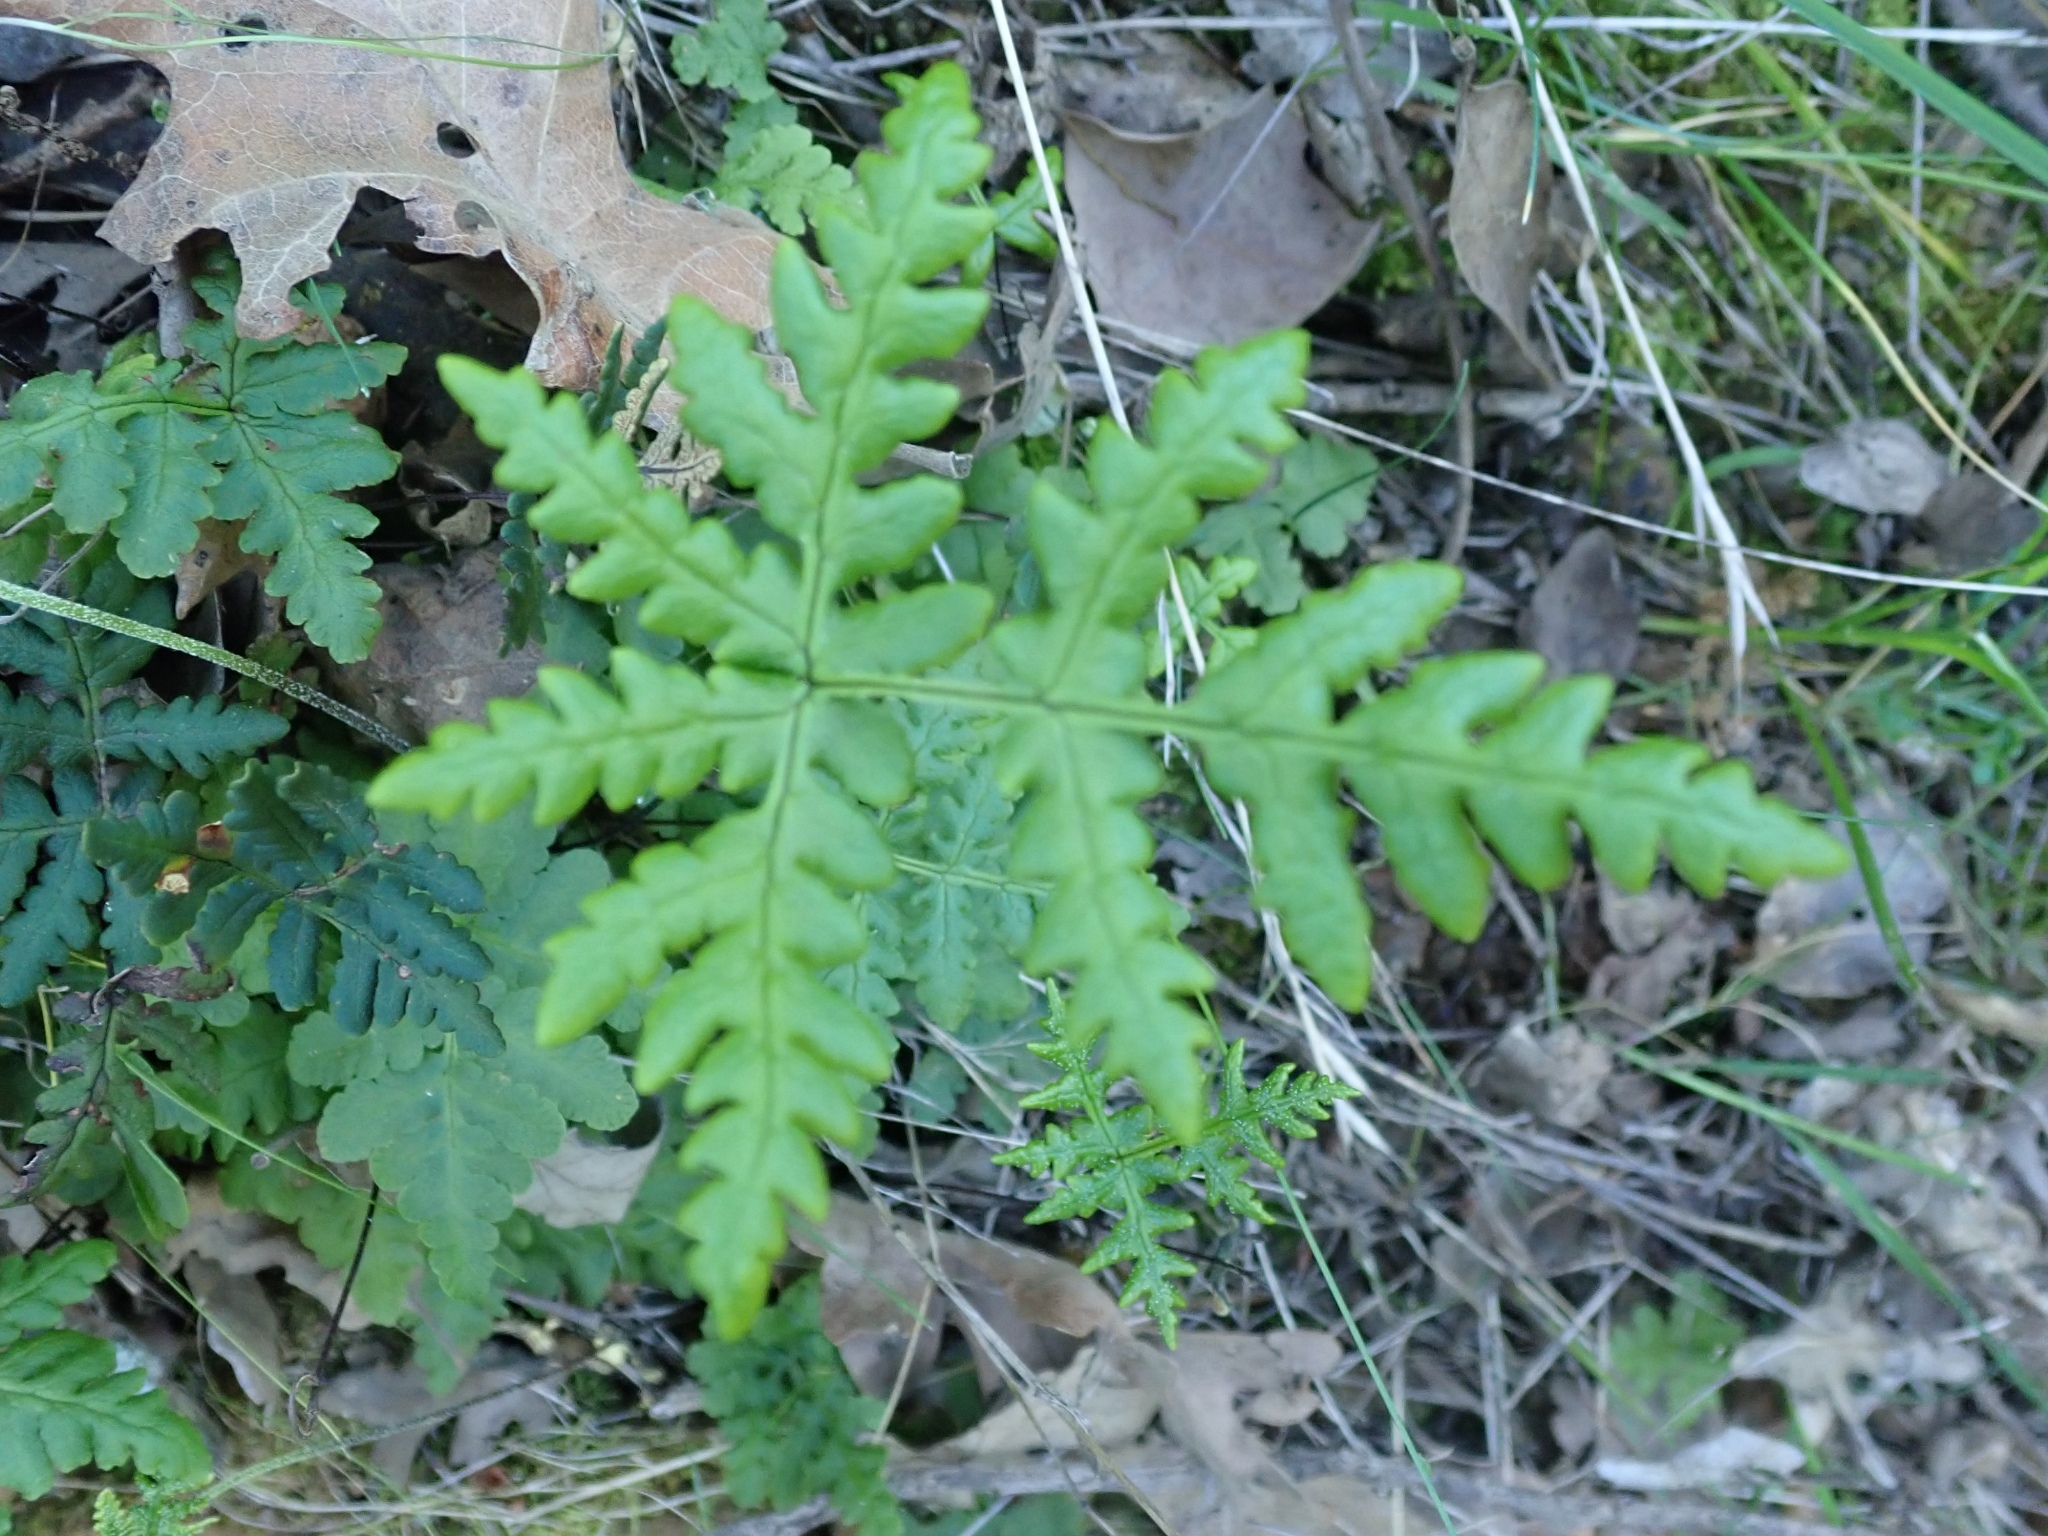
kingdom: Plantae
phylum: Tracheophyta
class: Polypodiopsida
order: Polypodiales
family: Pteridaceae
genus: Pentagramma
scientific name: Pentagramma triangularis
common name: Gold fern
